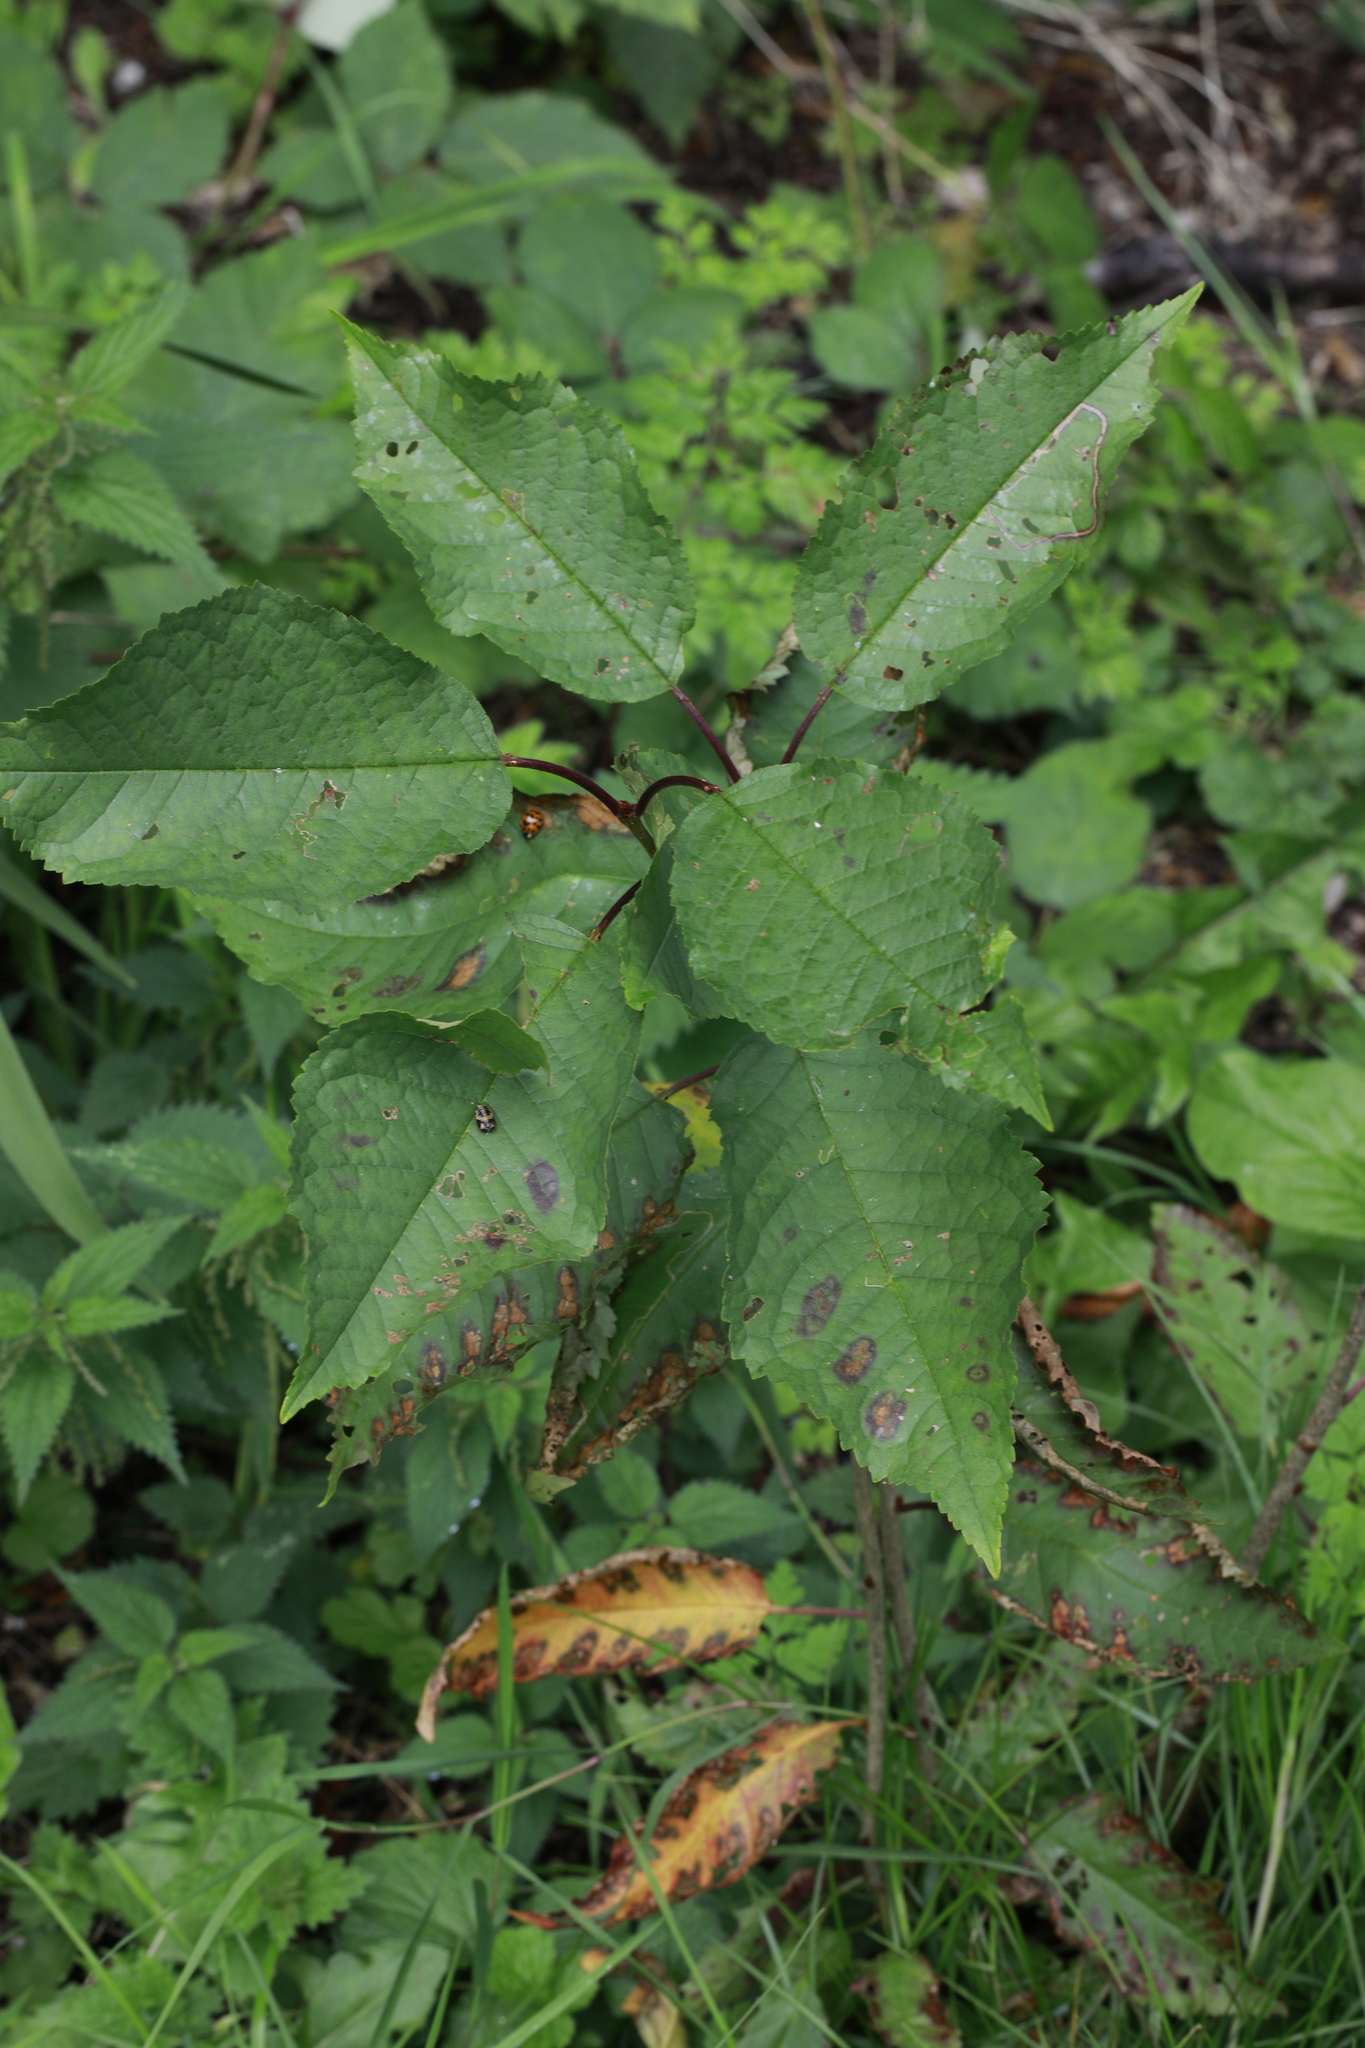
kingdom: Plantae
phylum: Tracheophyta
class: Magnoliopsida
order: Rosales
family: Rosaceae
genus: Prunus
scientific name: Prunus avium
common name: Sweet cherry
